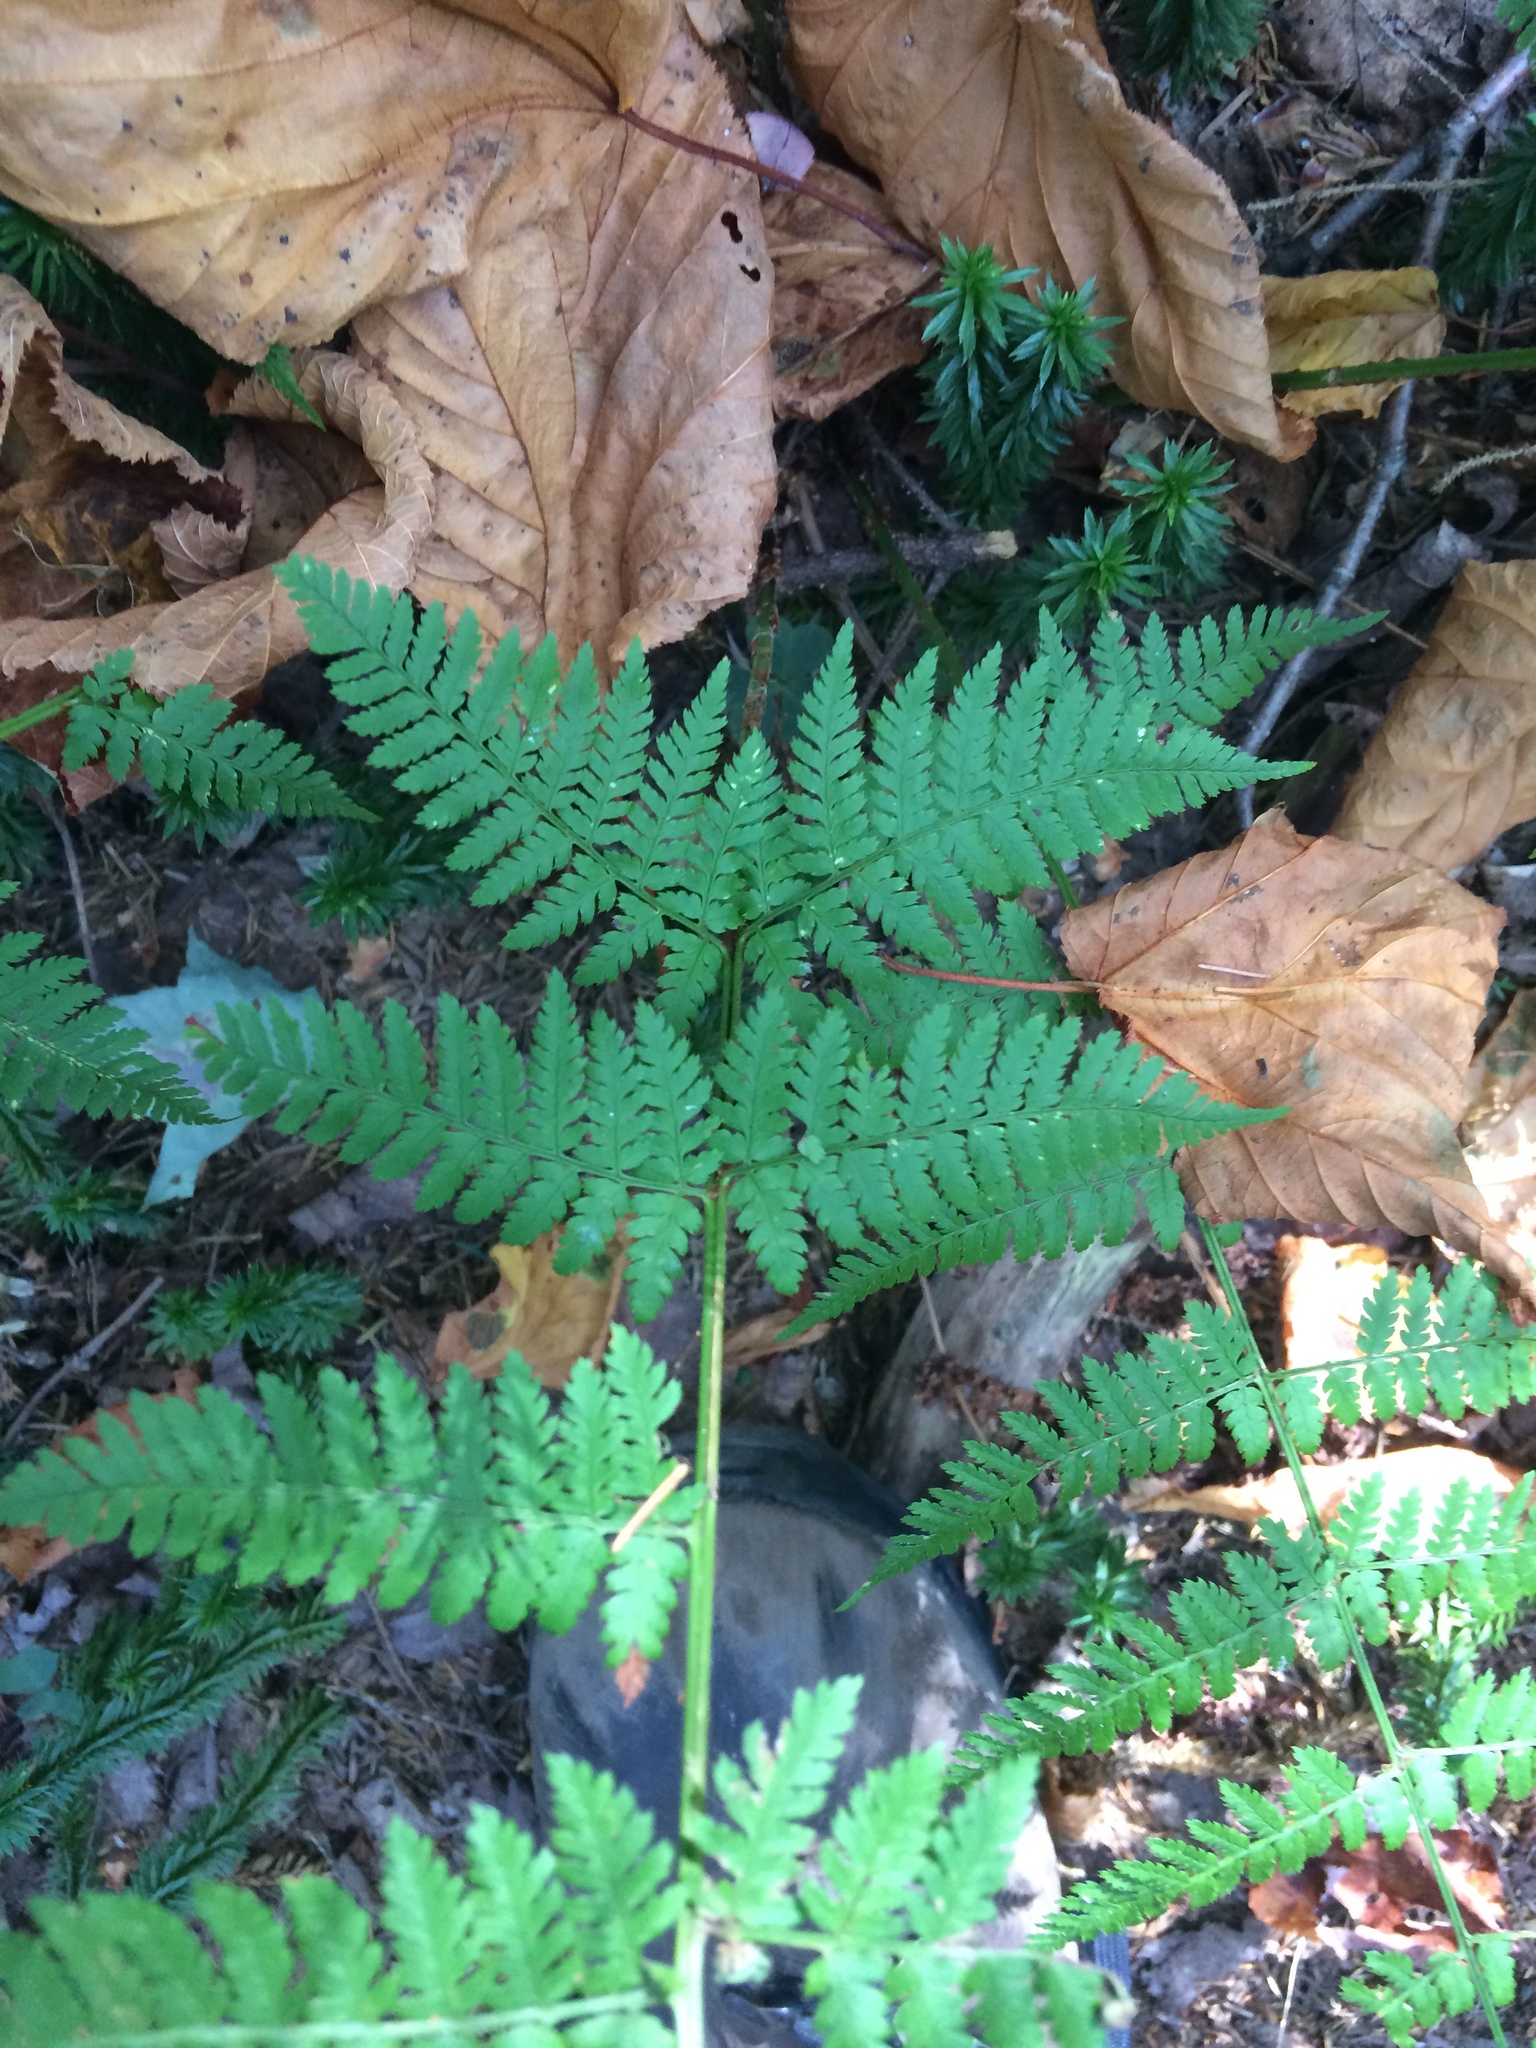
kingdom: Plantae
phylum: Tracheophyta
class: Polypodiopsida
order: Polypodiales
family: Dryopteridaceae
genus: Dryopteris
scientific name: Dryopteris intermedia
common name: Evergreen wood fern
